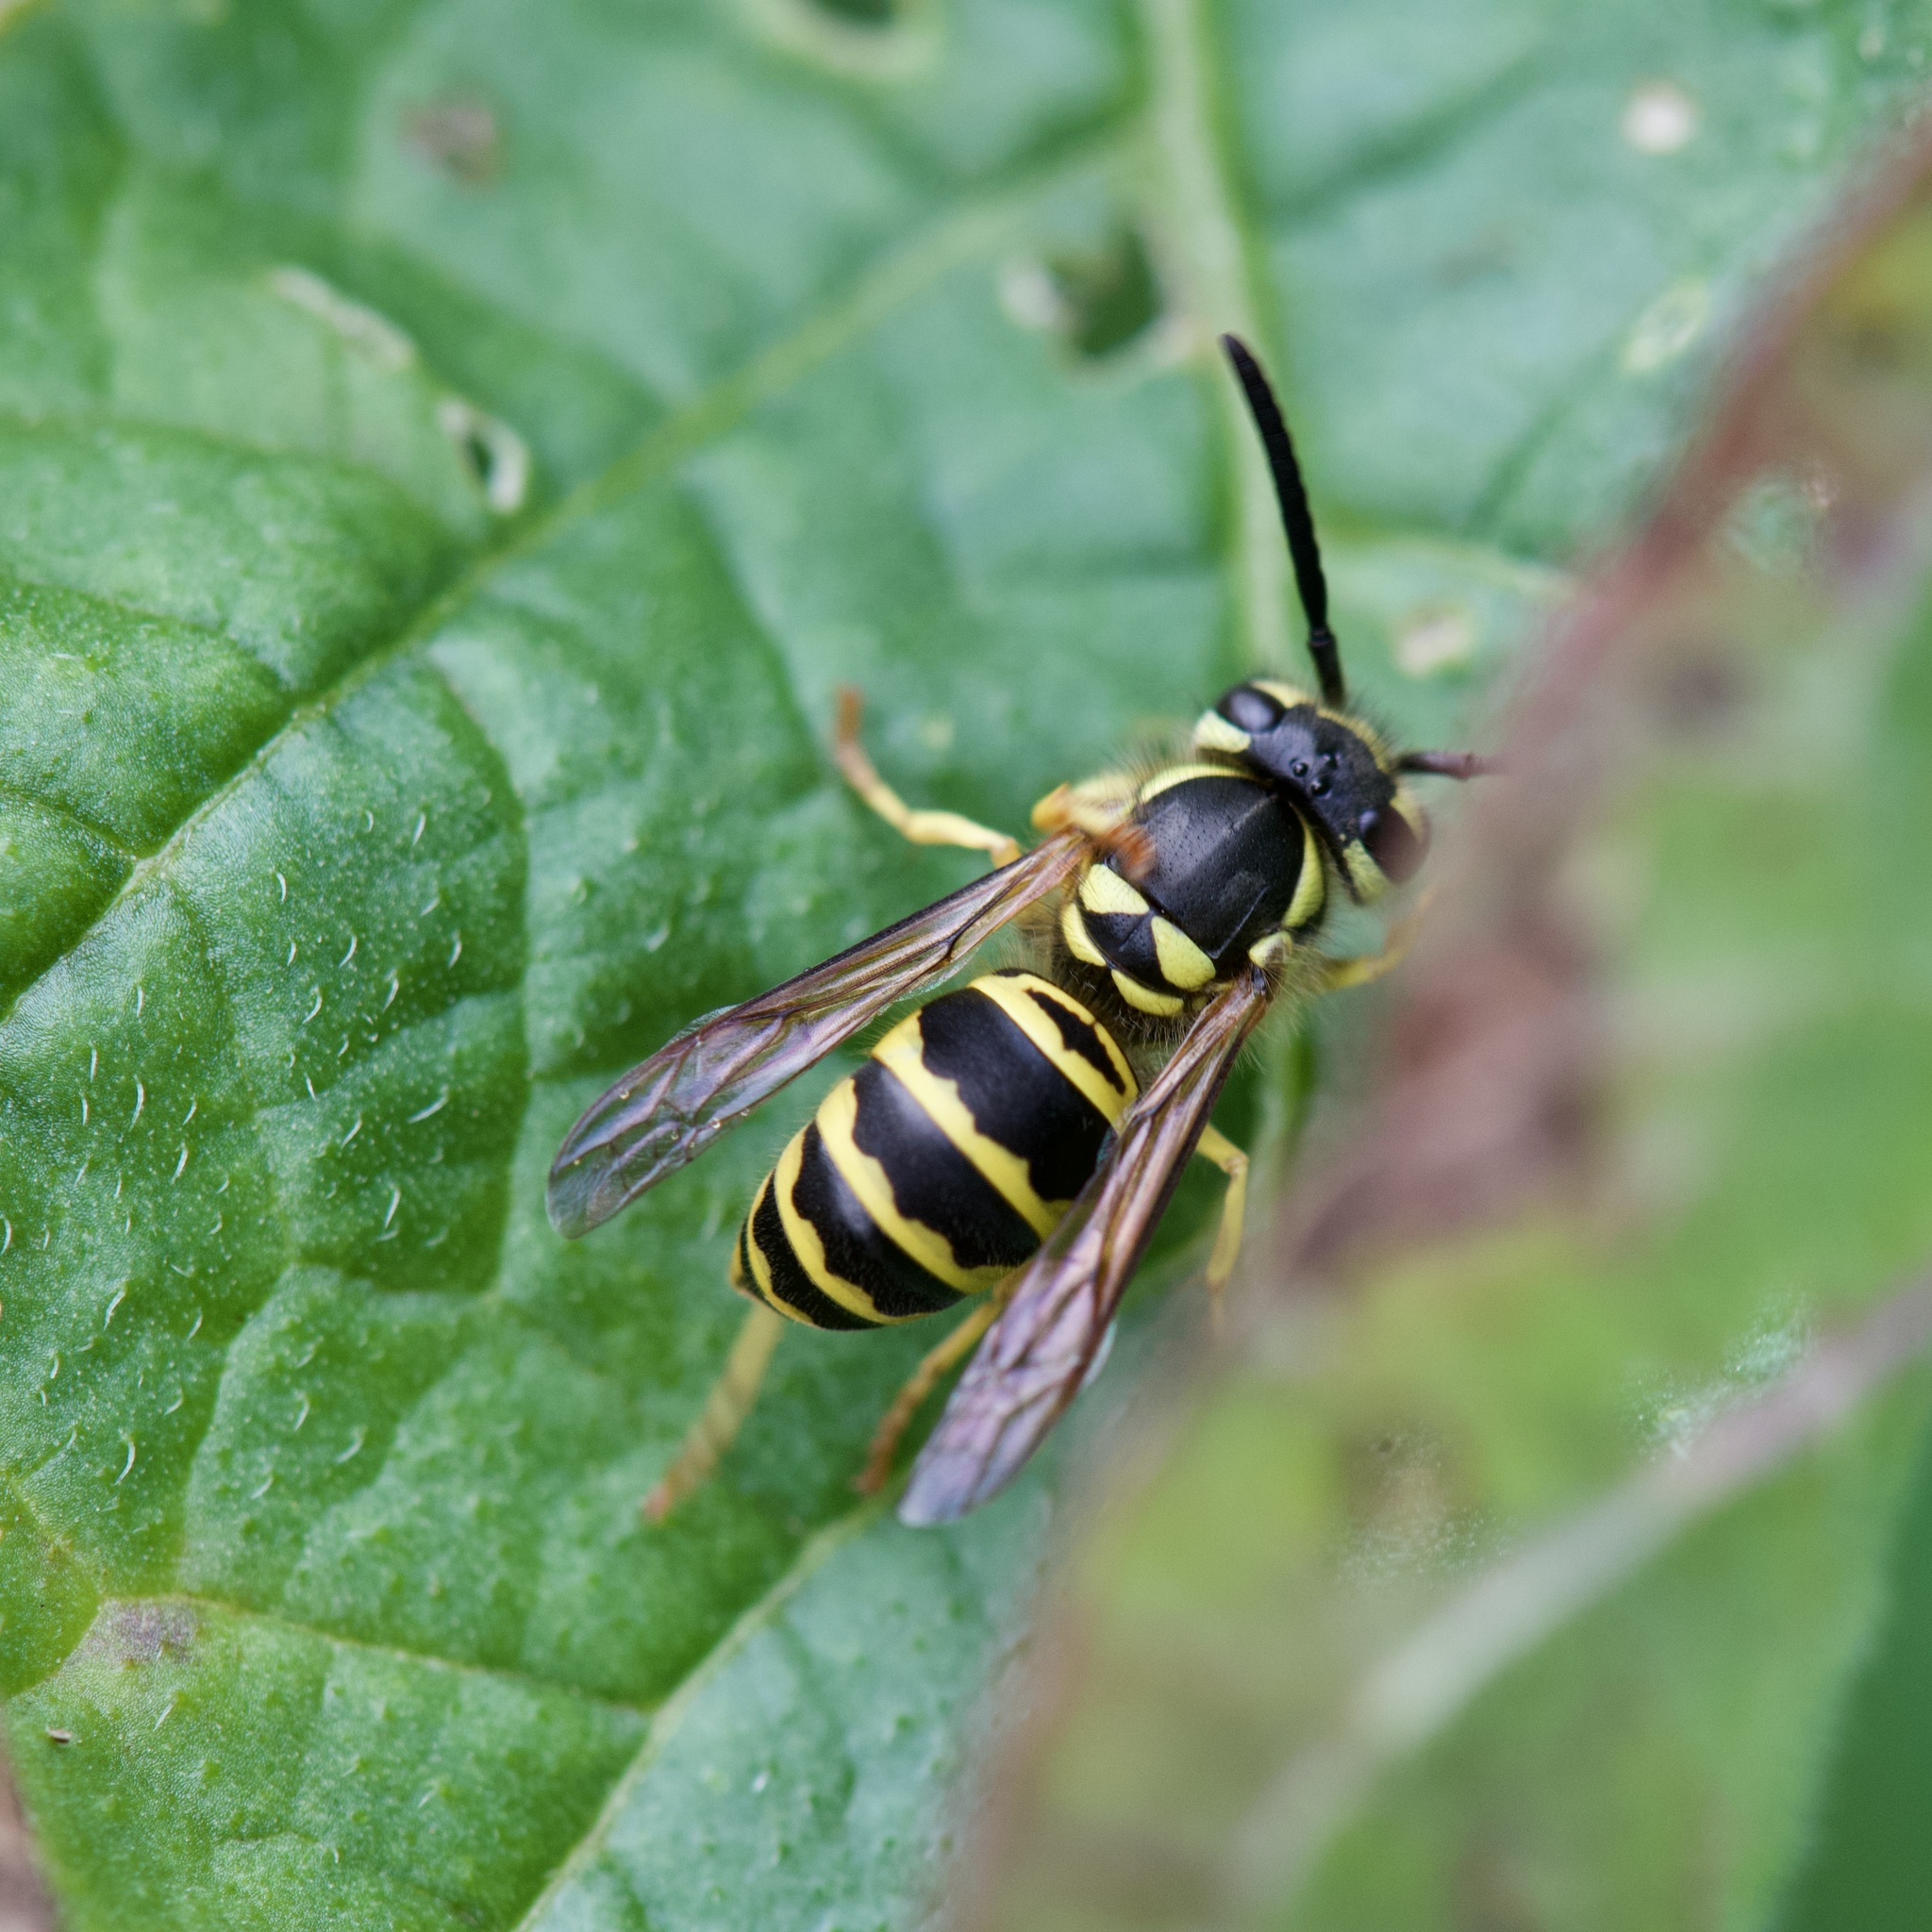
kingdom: Animalia
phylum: Arthropoda
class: Insecta
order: Hymenoptera
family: Vespidae
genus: Vespula
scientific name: Vespula maculifrons
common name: Eastern yellowjacket
